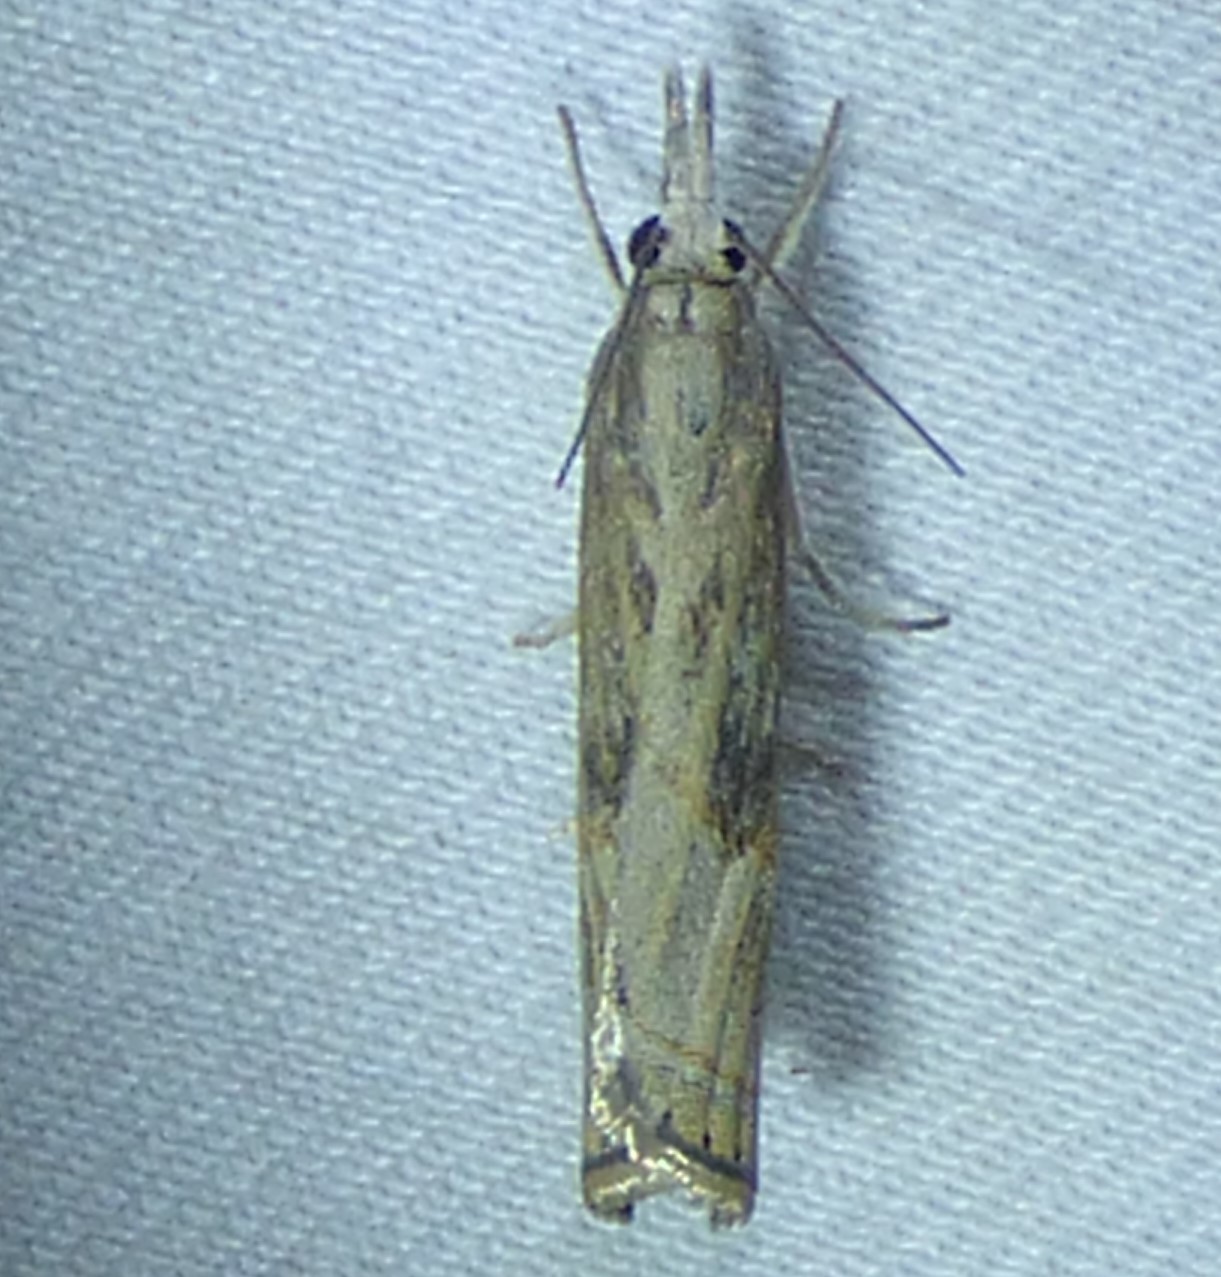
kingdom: Animalia
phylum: Arthropoda
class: Insecta
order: Lepidoptera
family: Crambidae
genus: Parapediasia
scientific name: Parapediasia teterellus
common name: Bluegrass webworm moth
